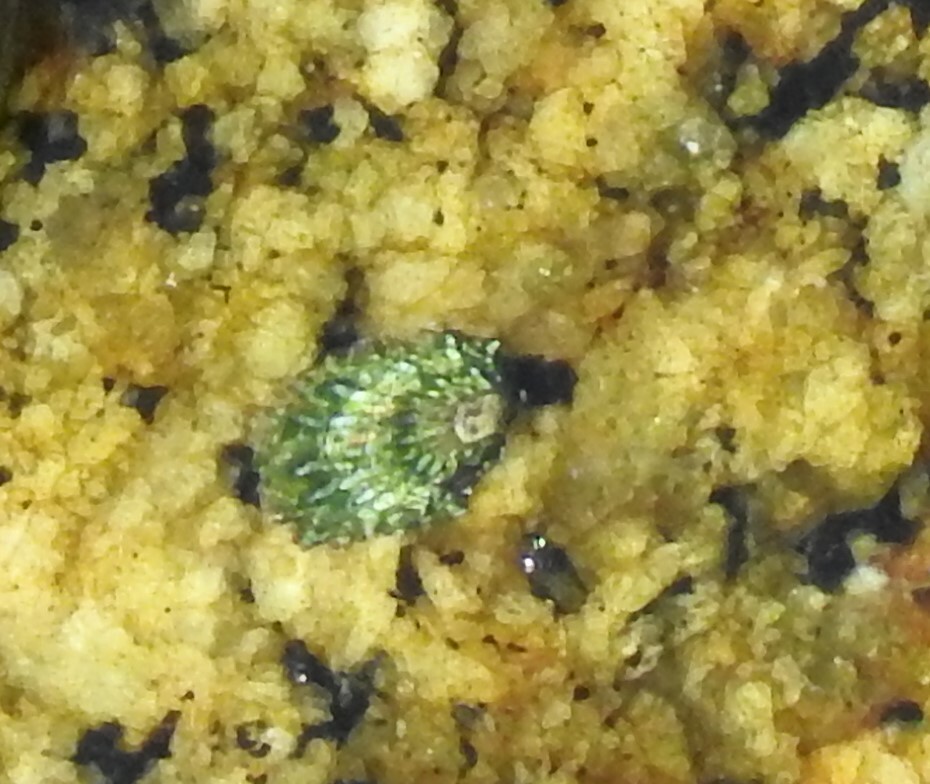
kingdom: Animalia
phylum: Mollusca
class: Gastropoda
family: Lottiidae
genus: Lottia
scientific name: Lottia scabra
